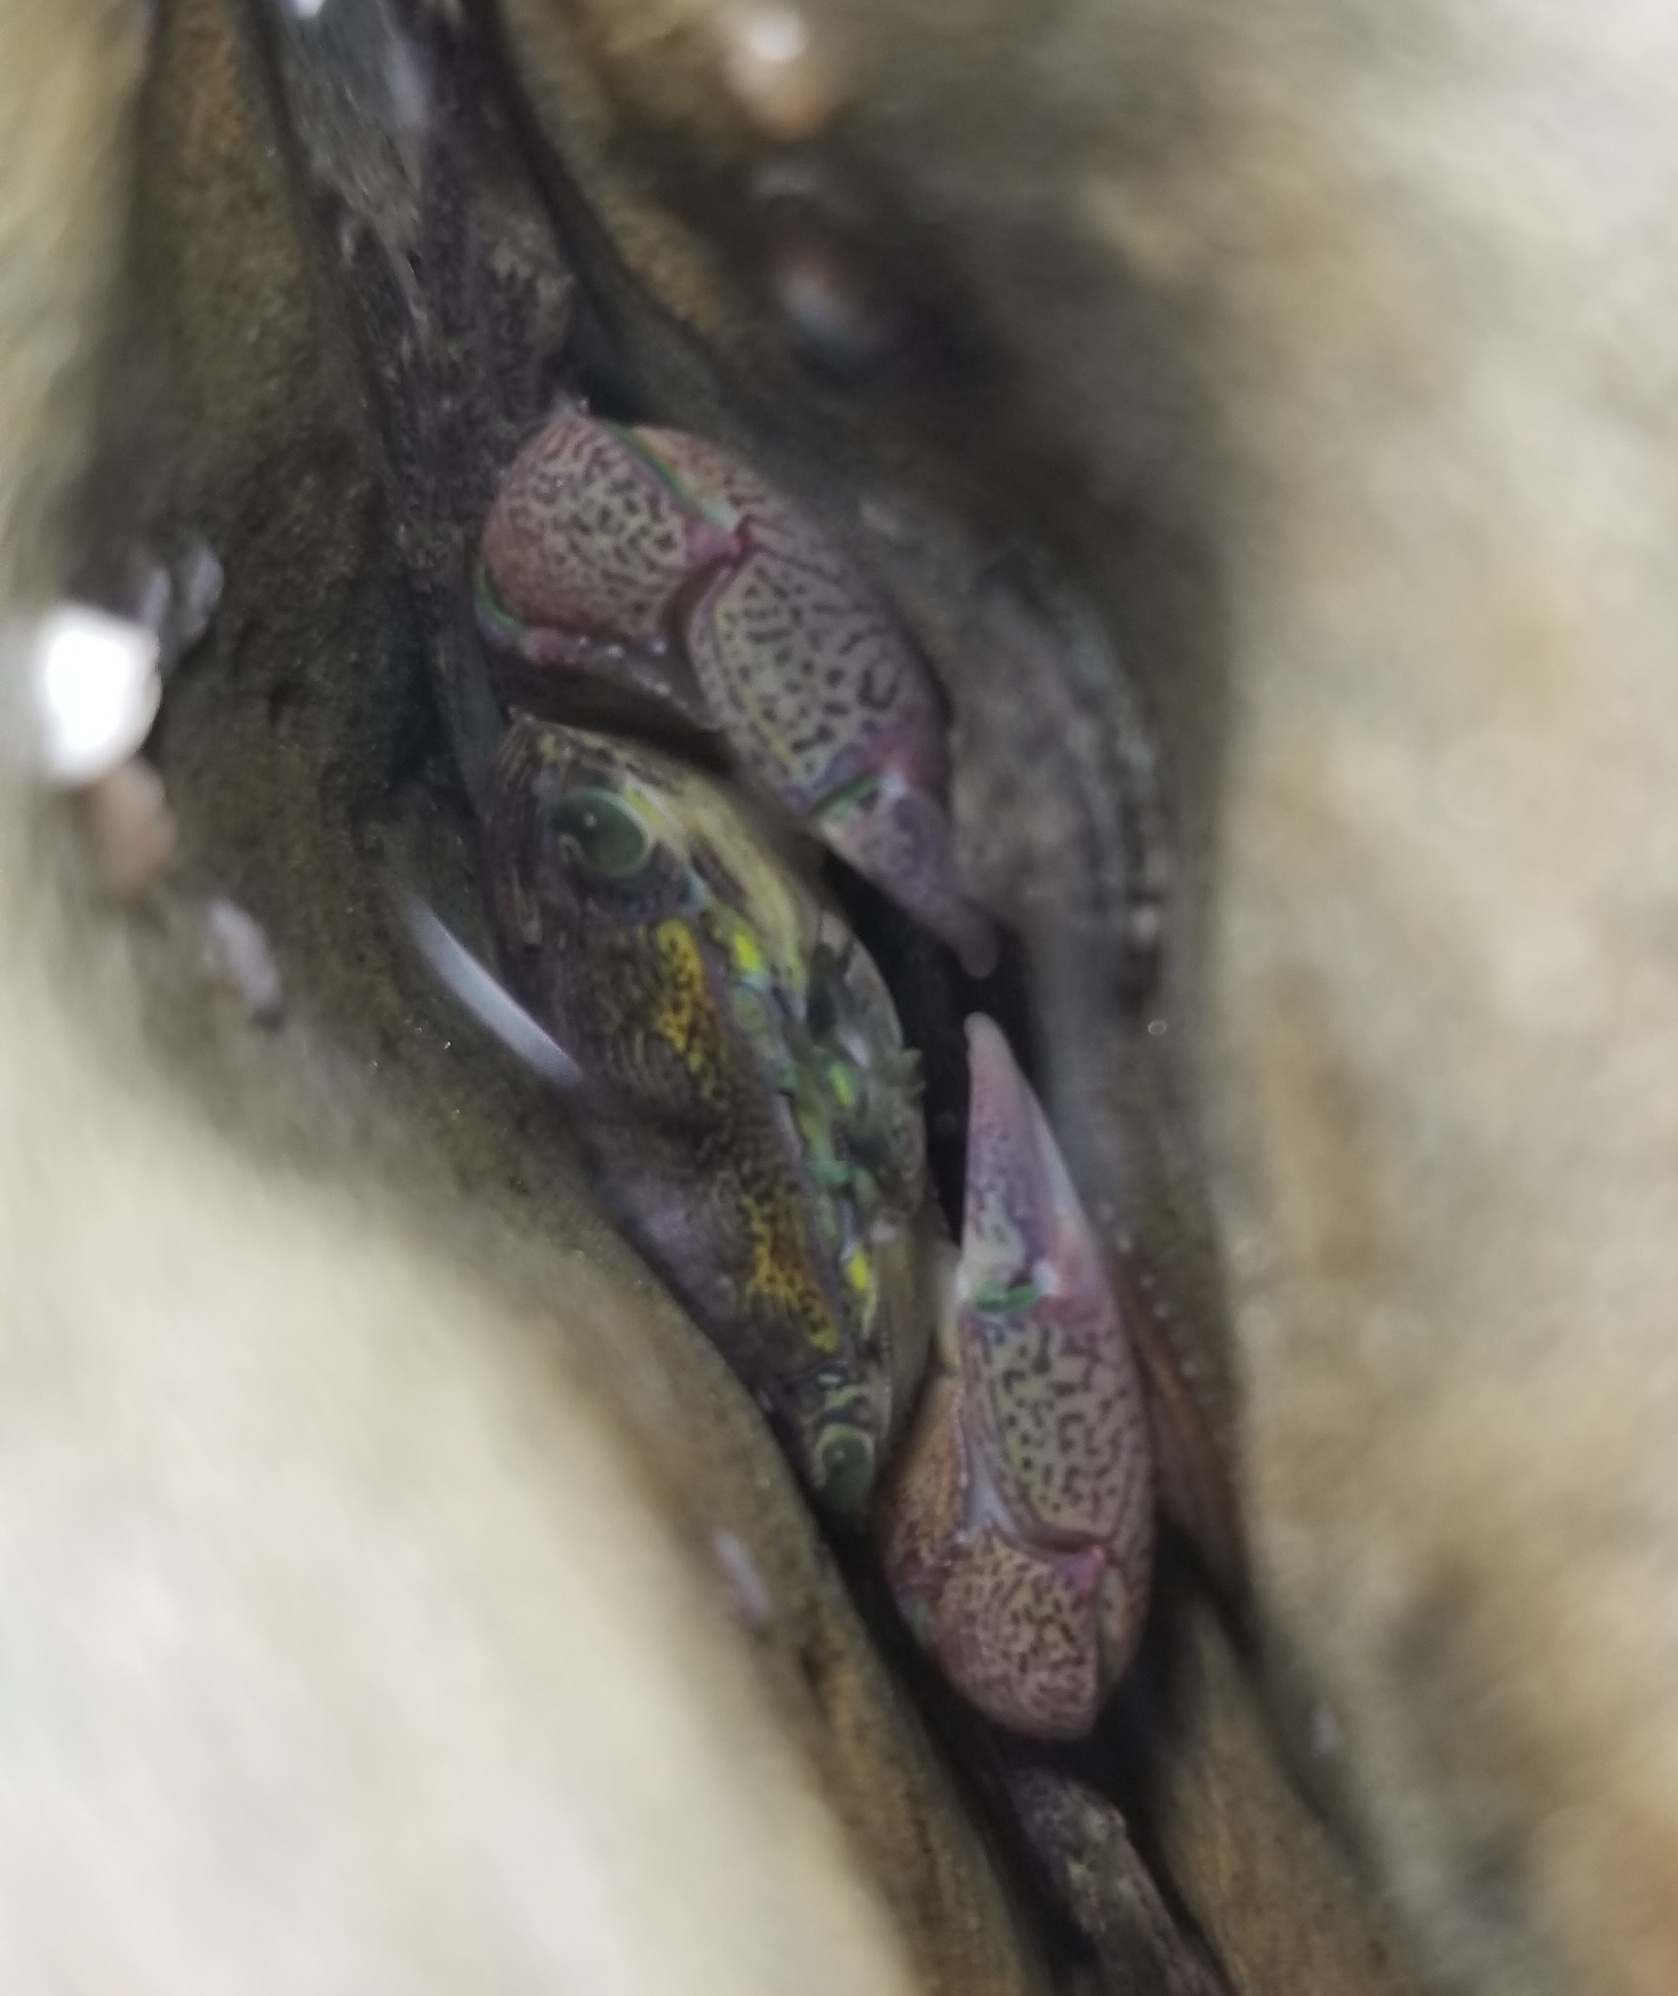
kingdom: Animalia
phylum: Arthropoda
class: Malacostraca
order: Decapoda
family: Grapsidae
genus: Pachygrapsus
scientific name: Pachygrapsus crassipes
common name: Striped shore crab
